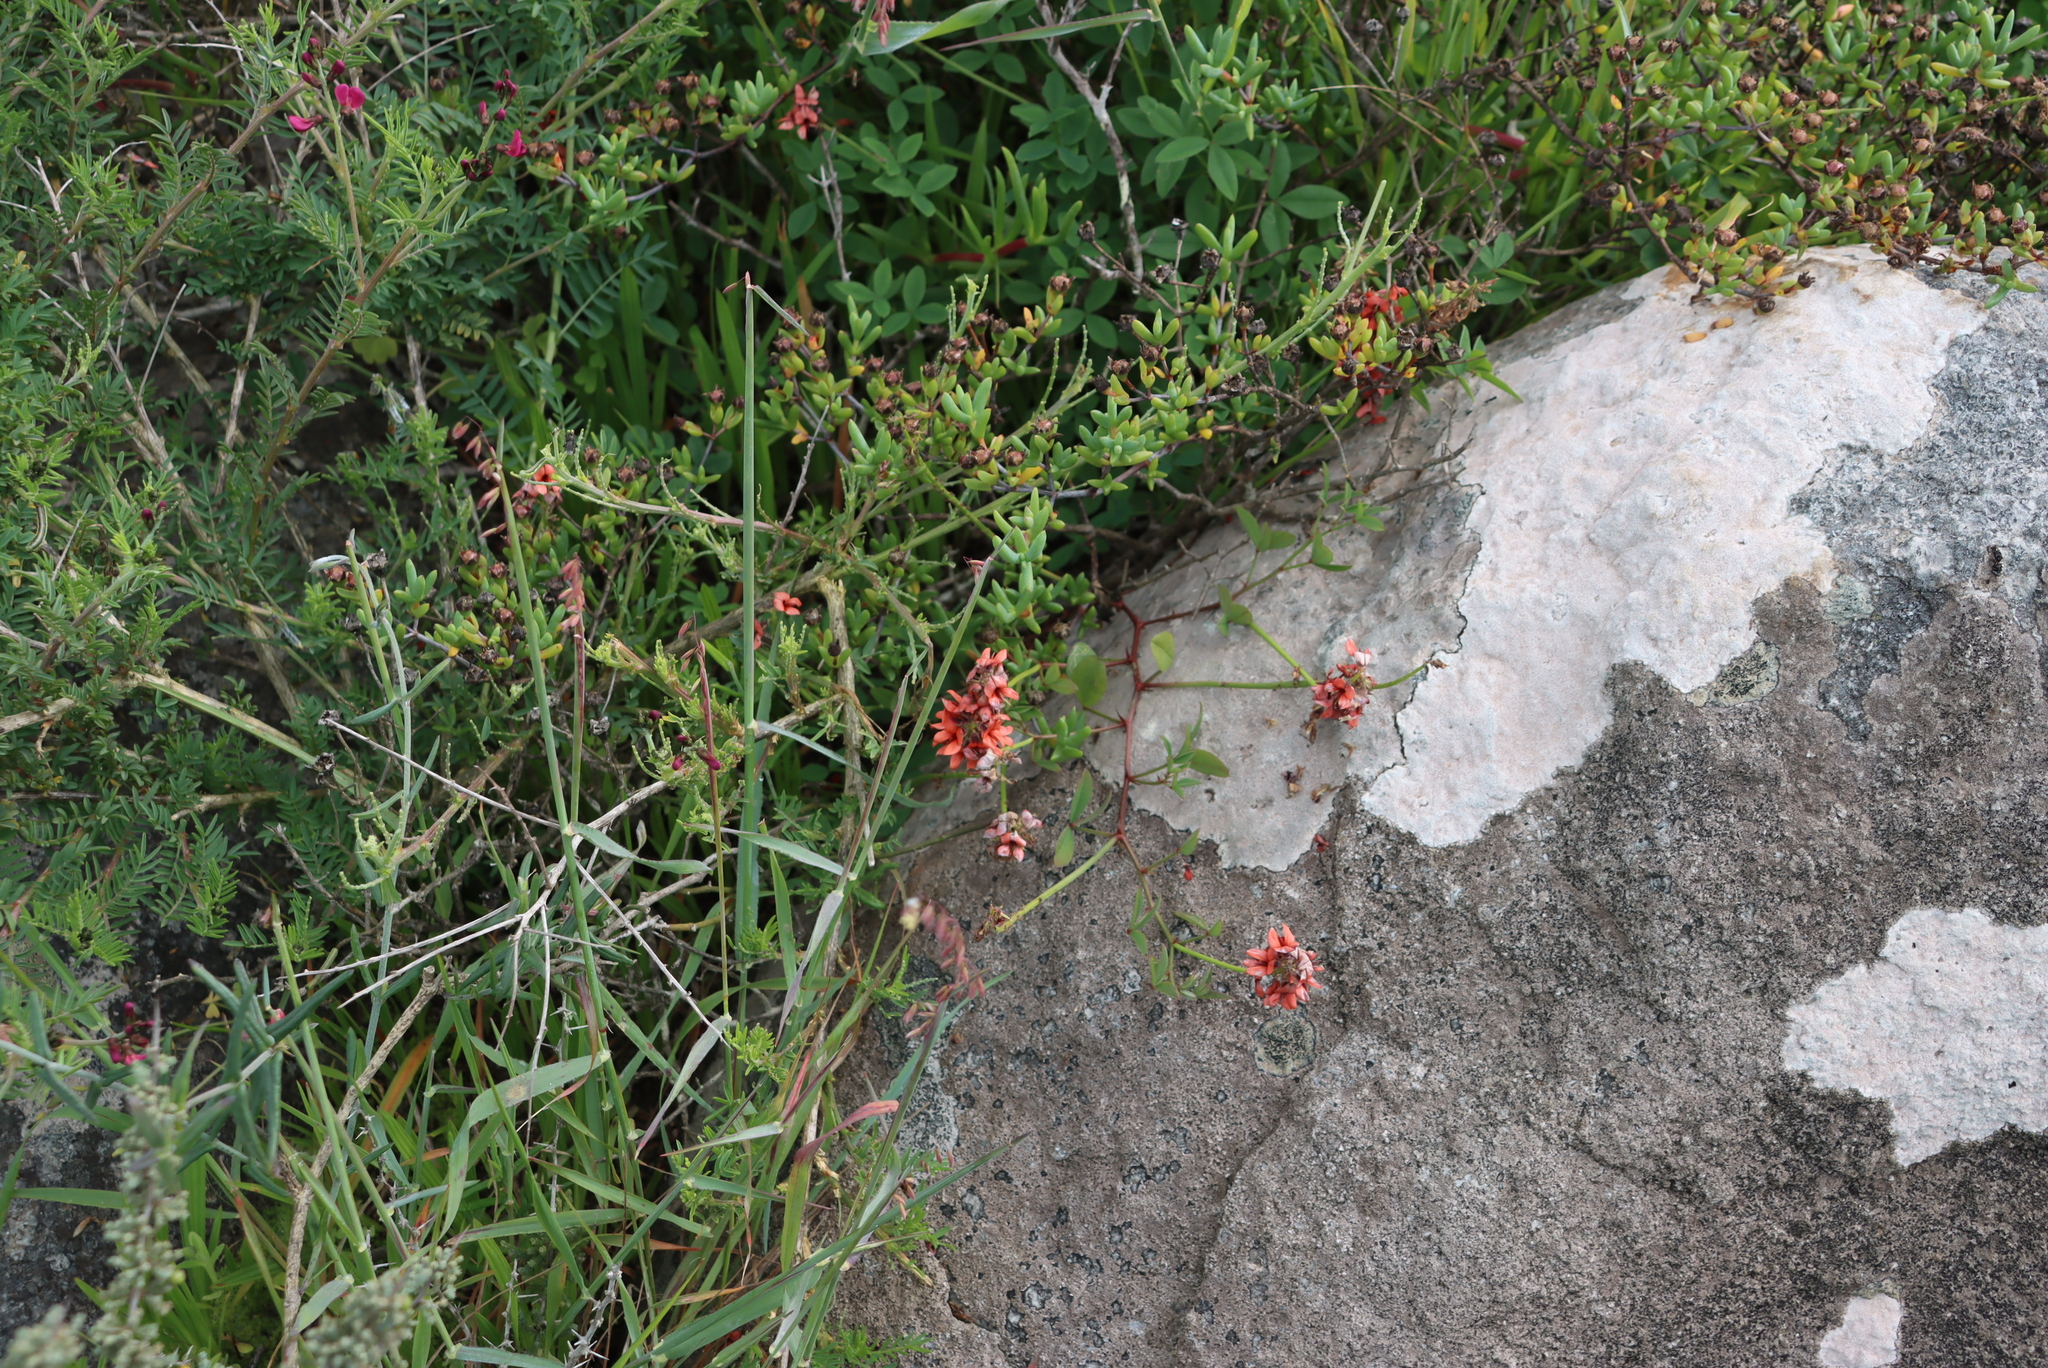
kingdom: Plantae
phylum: Tracheophyta
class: Magnoliopsida
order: Fabales
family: Fabaceae
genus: Indigofera
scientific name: Indigofera
